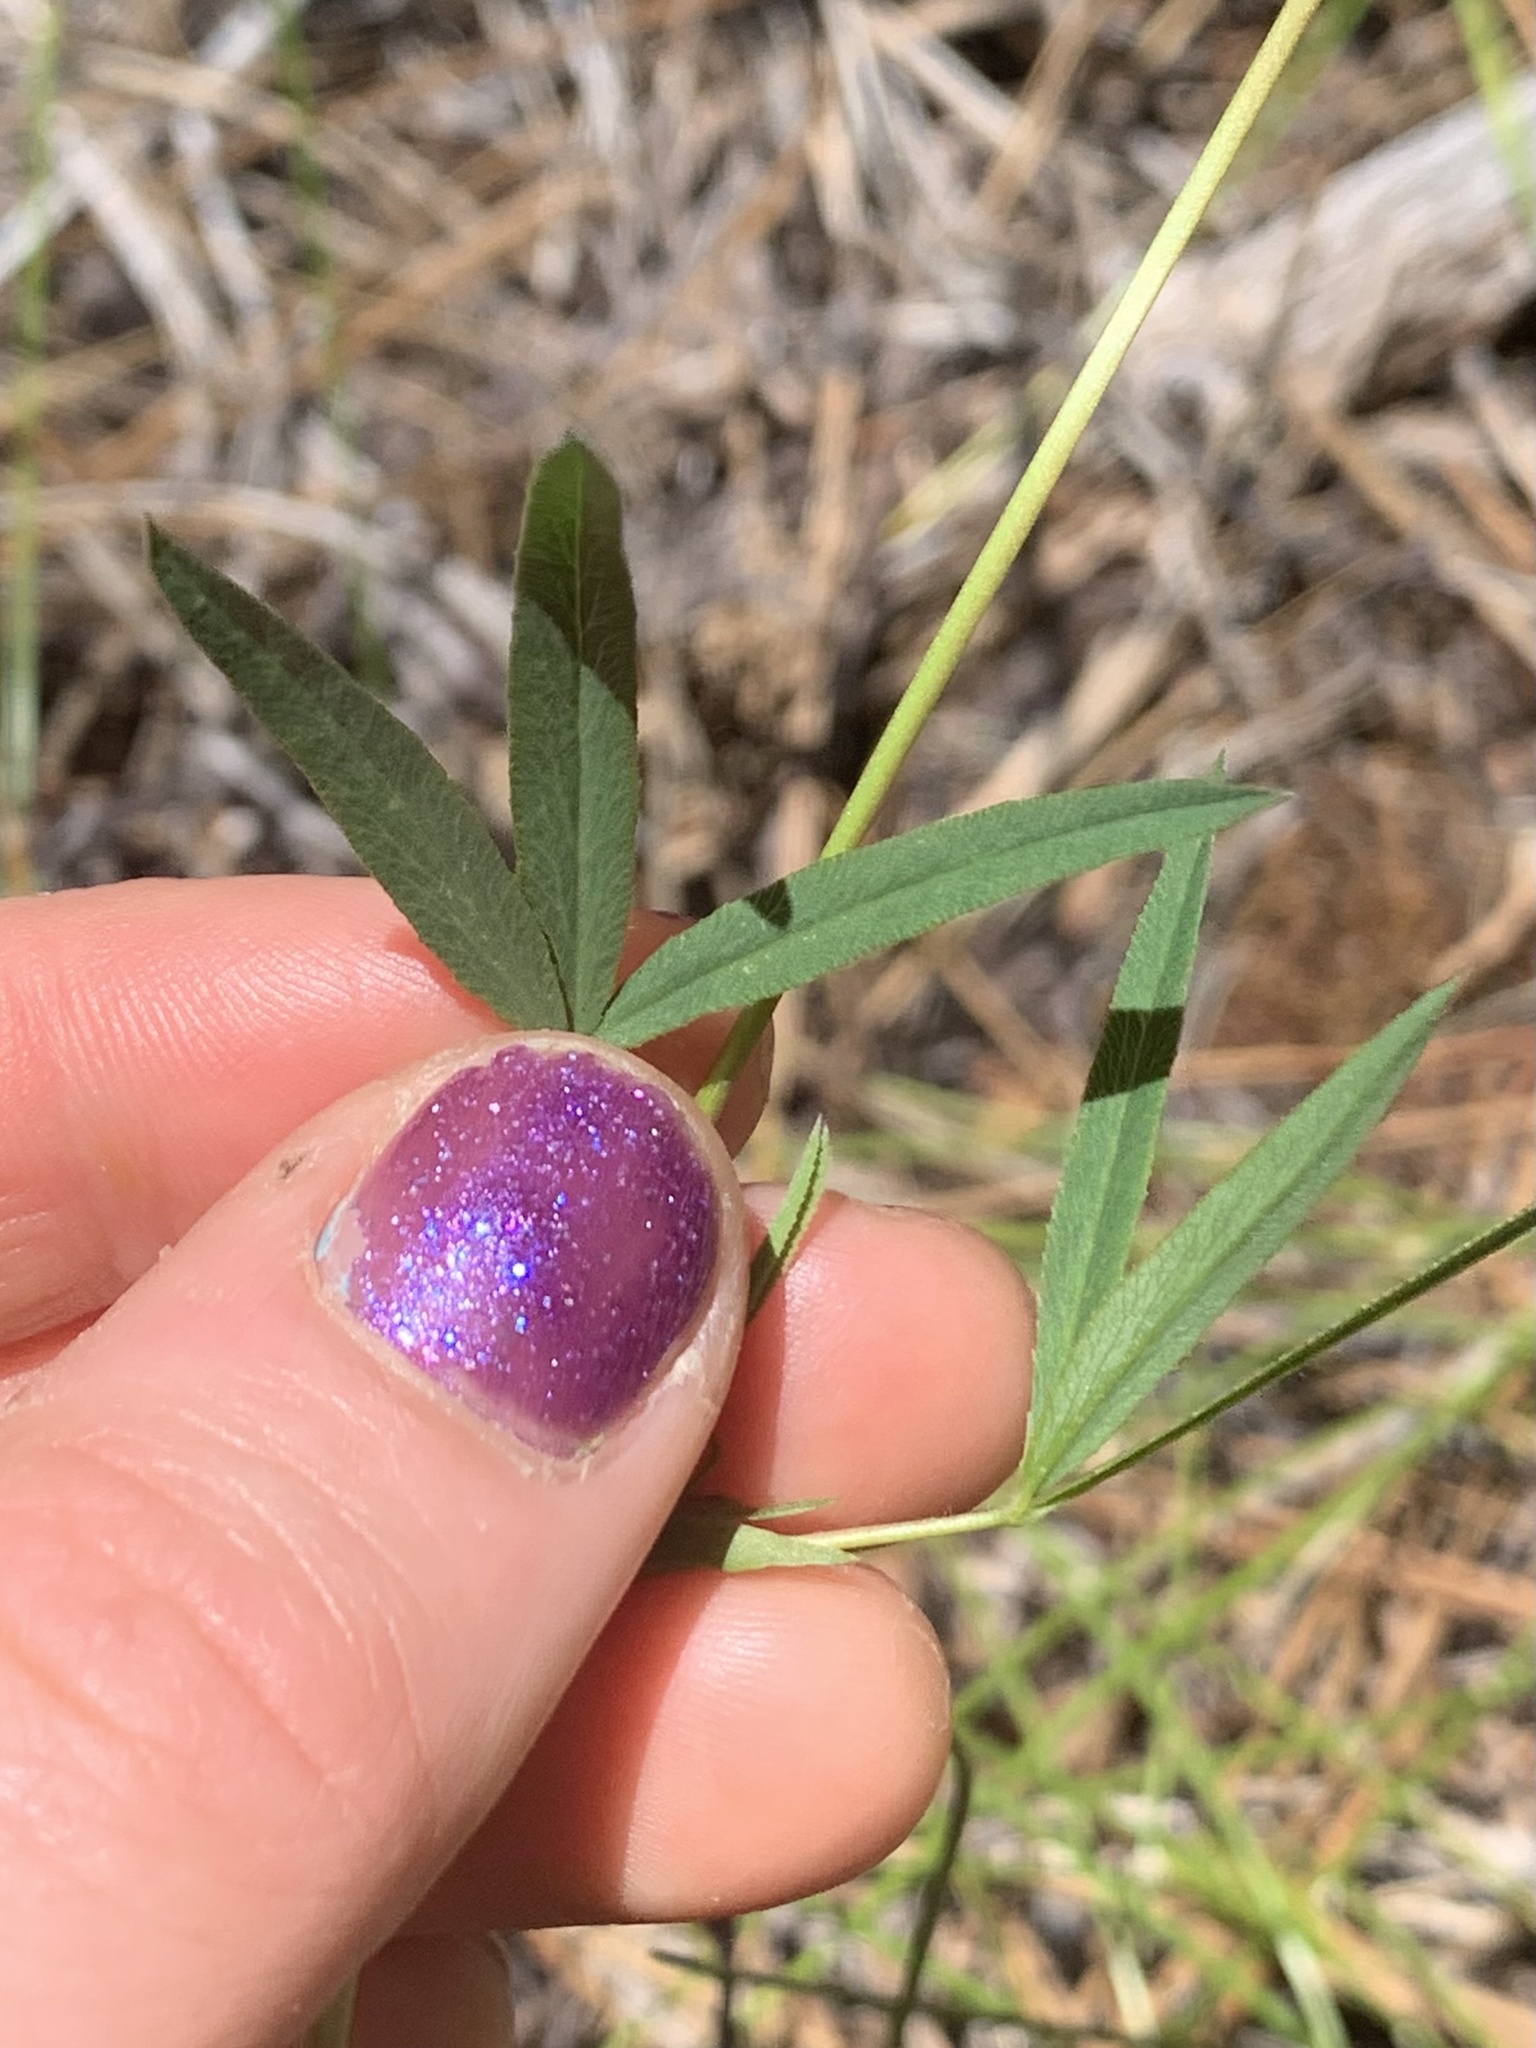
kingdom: Plantae
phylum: Tracheophyta
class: Magnoliopsida
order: Fabales
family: Fabaceae
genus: Trifolium
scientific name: Trifolium longipes
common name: Long-stalk clover
